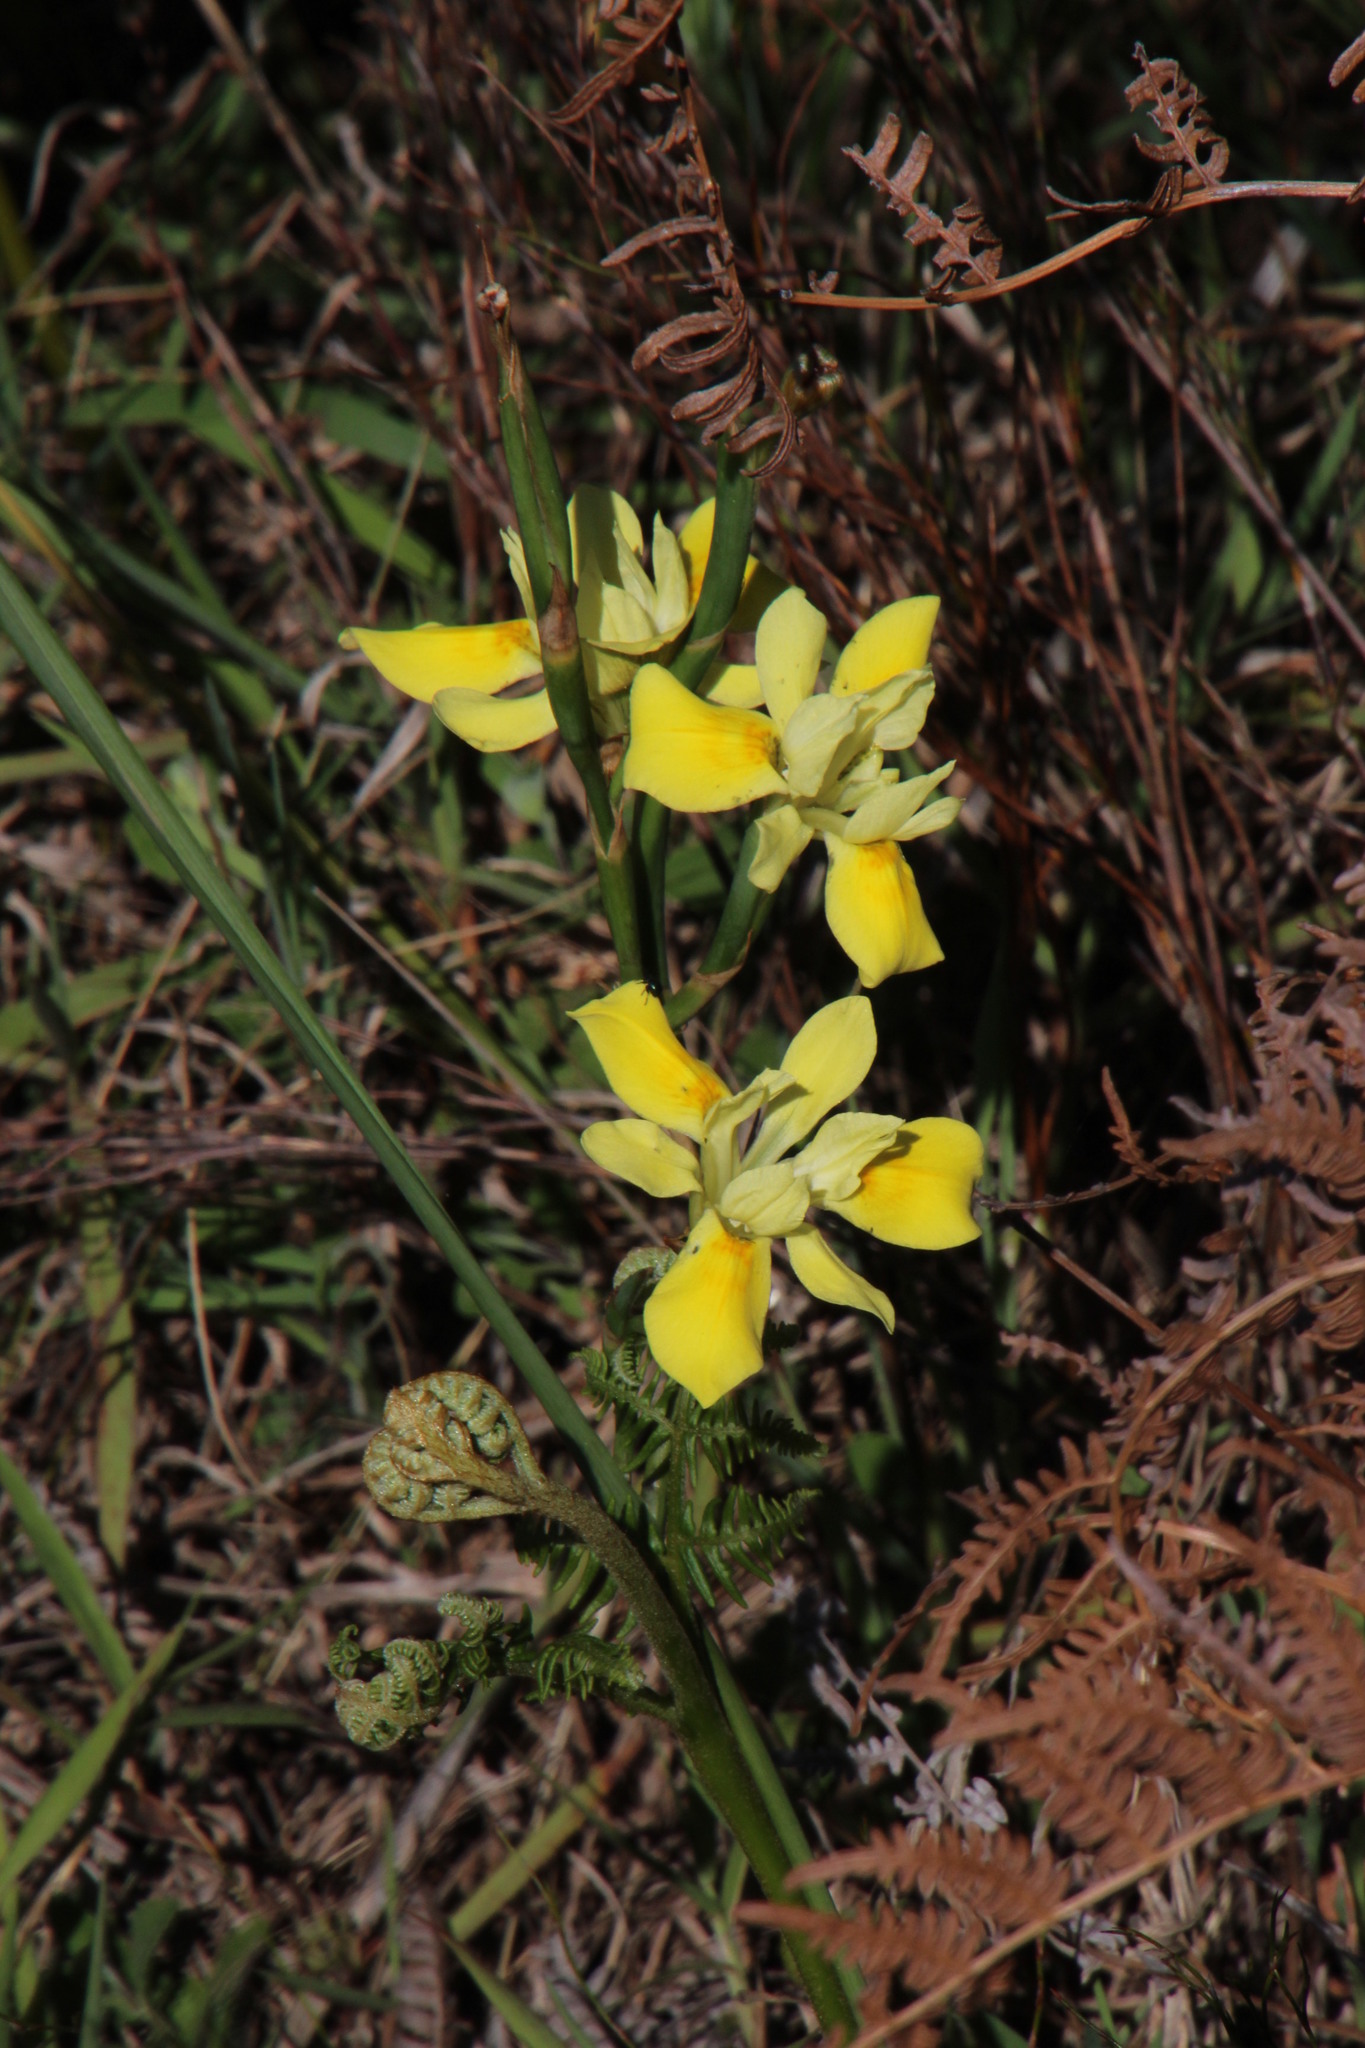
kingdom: Plantae
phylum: Tracheophyta
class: Liliopsida
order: Asparagales
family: Iridaceae
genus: Moraea
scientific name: Moraea fugax
